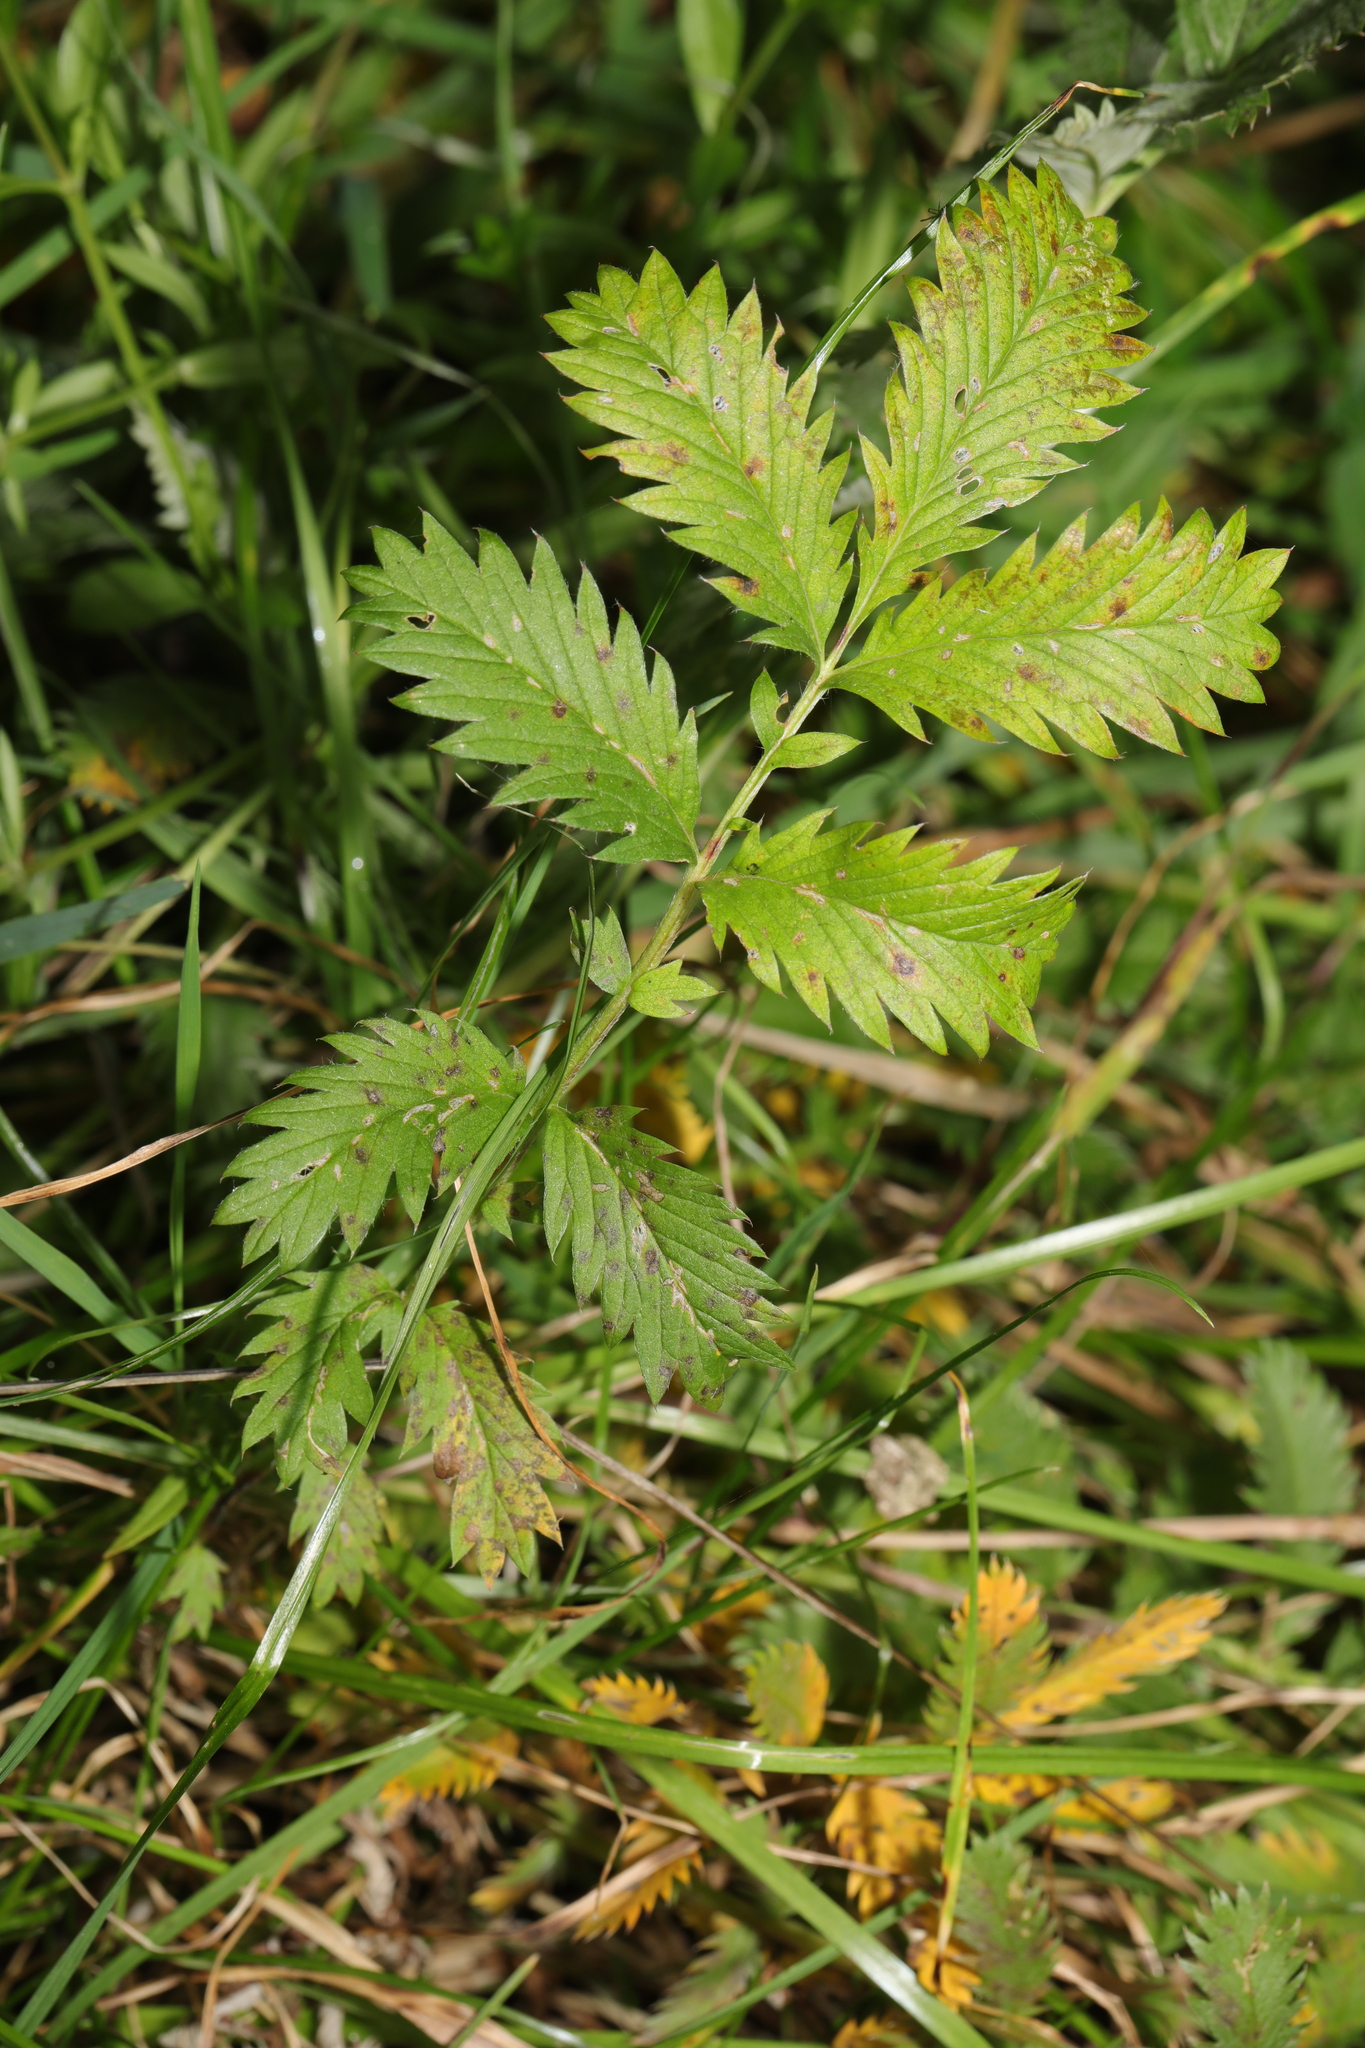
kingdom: Plantae
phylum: Tracheophyta
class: Magnoliopsida
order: Rosales
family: Rosaceae
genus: Argentina
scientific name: Argentina anserina
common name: Common silverweed
